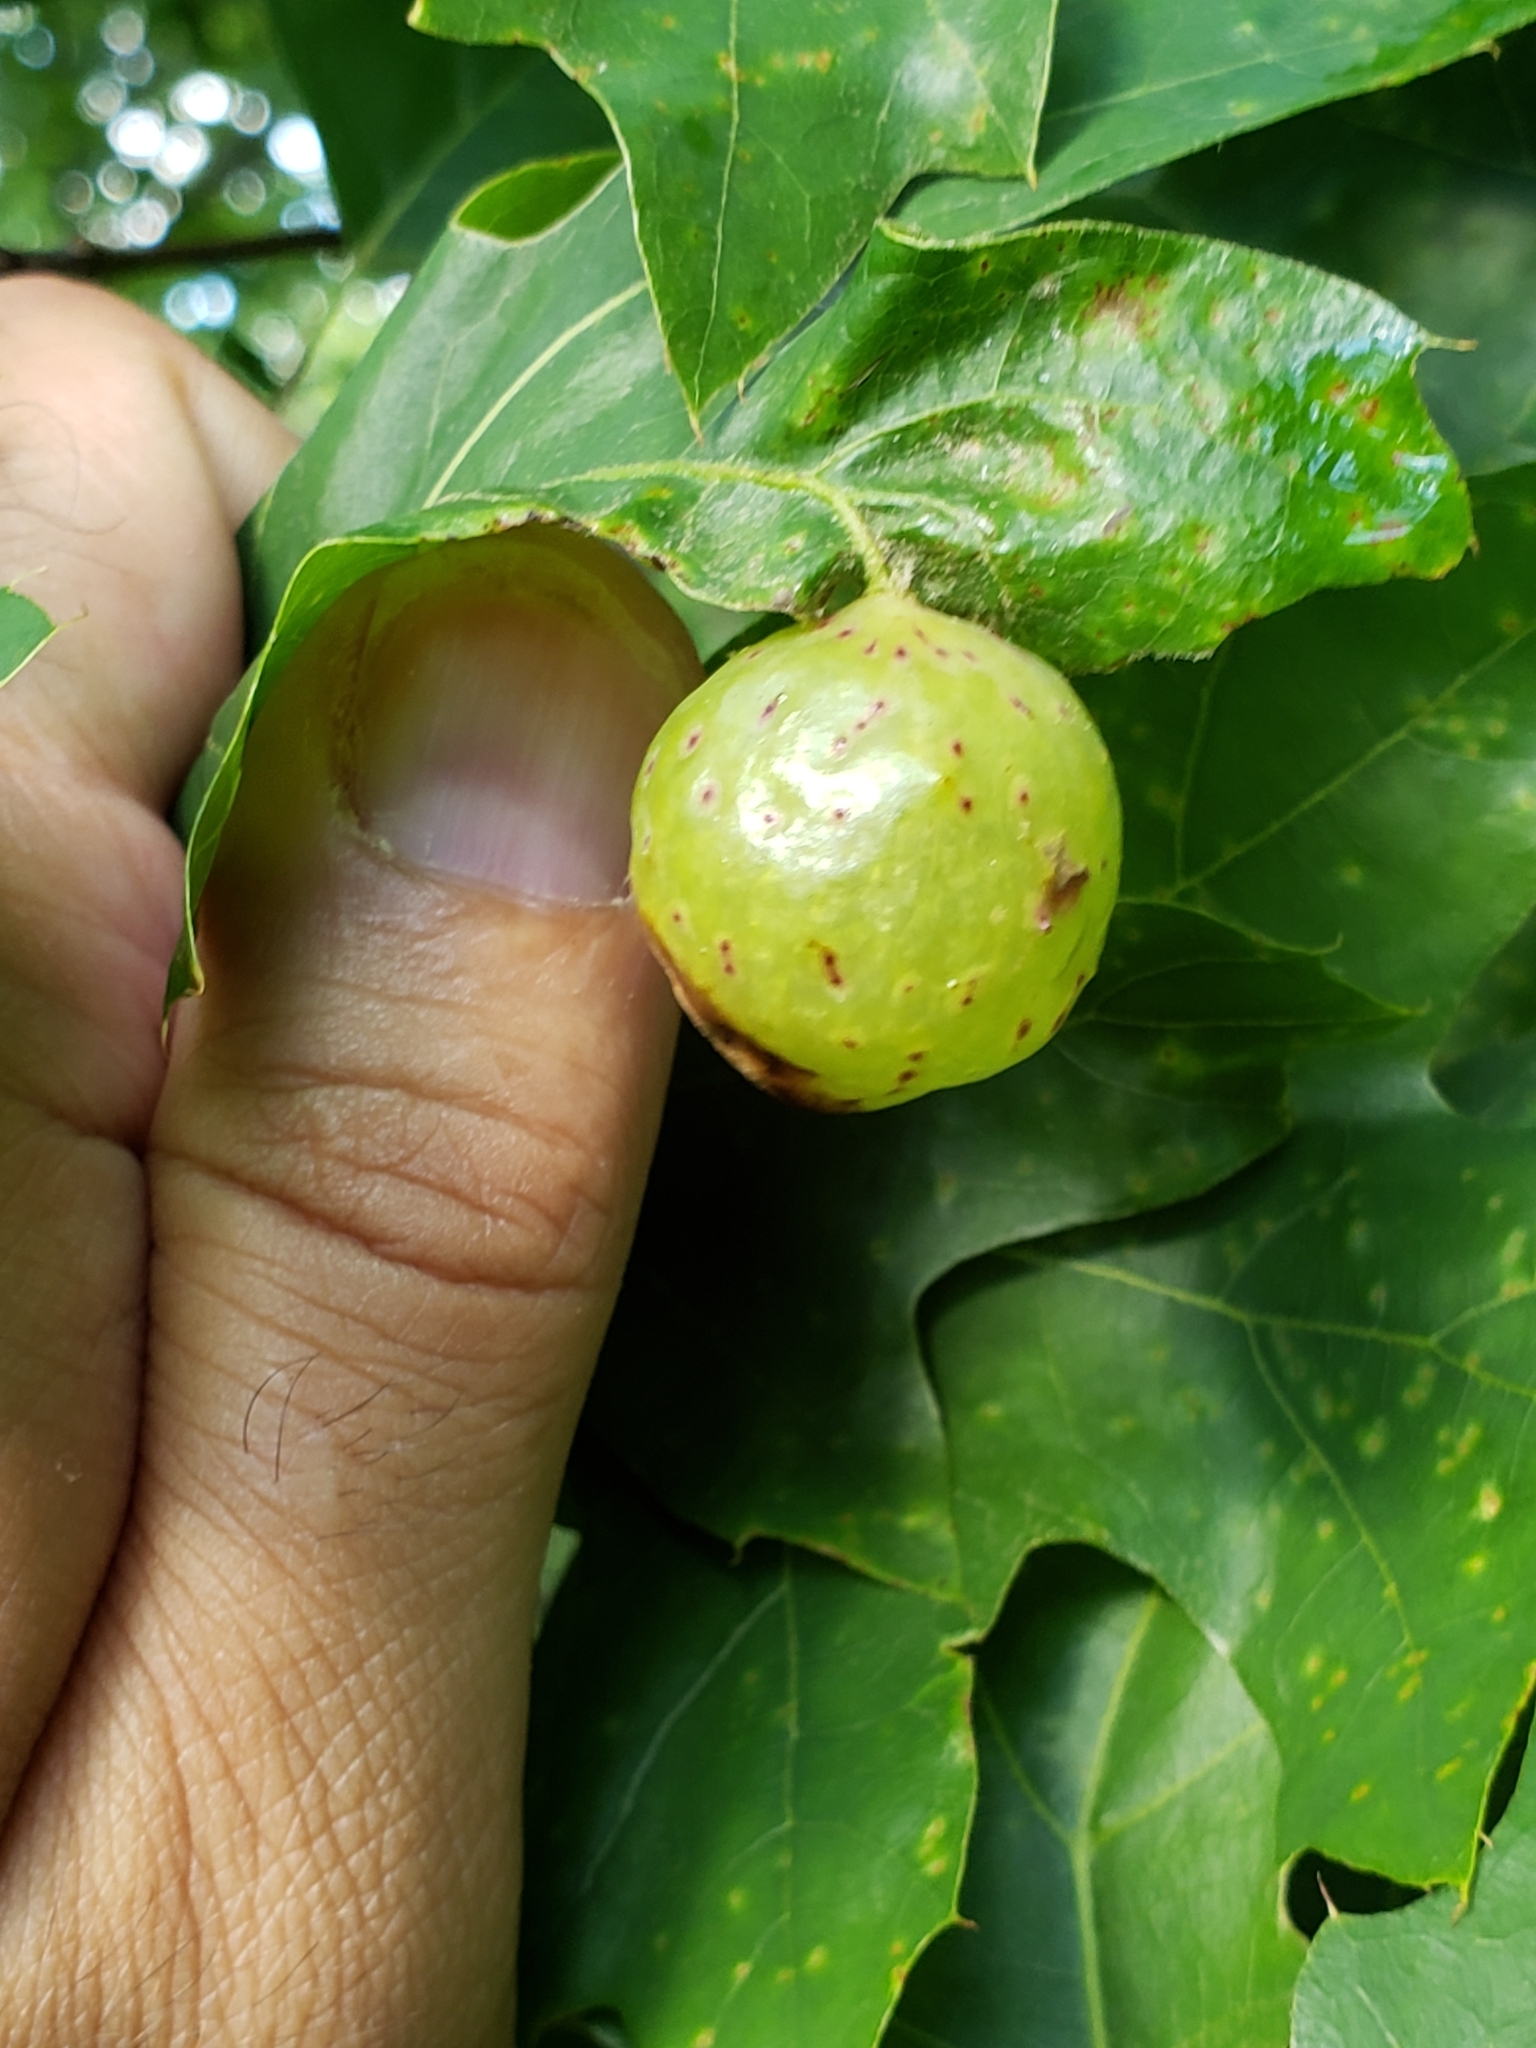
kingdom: Animalia
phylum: Arthropoda
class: Insecta
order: Hymenoptera
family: Cynipidae
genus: Amphibolips
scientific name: Amphibolips
